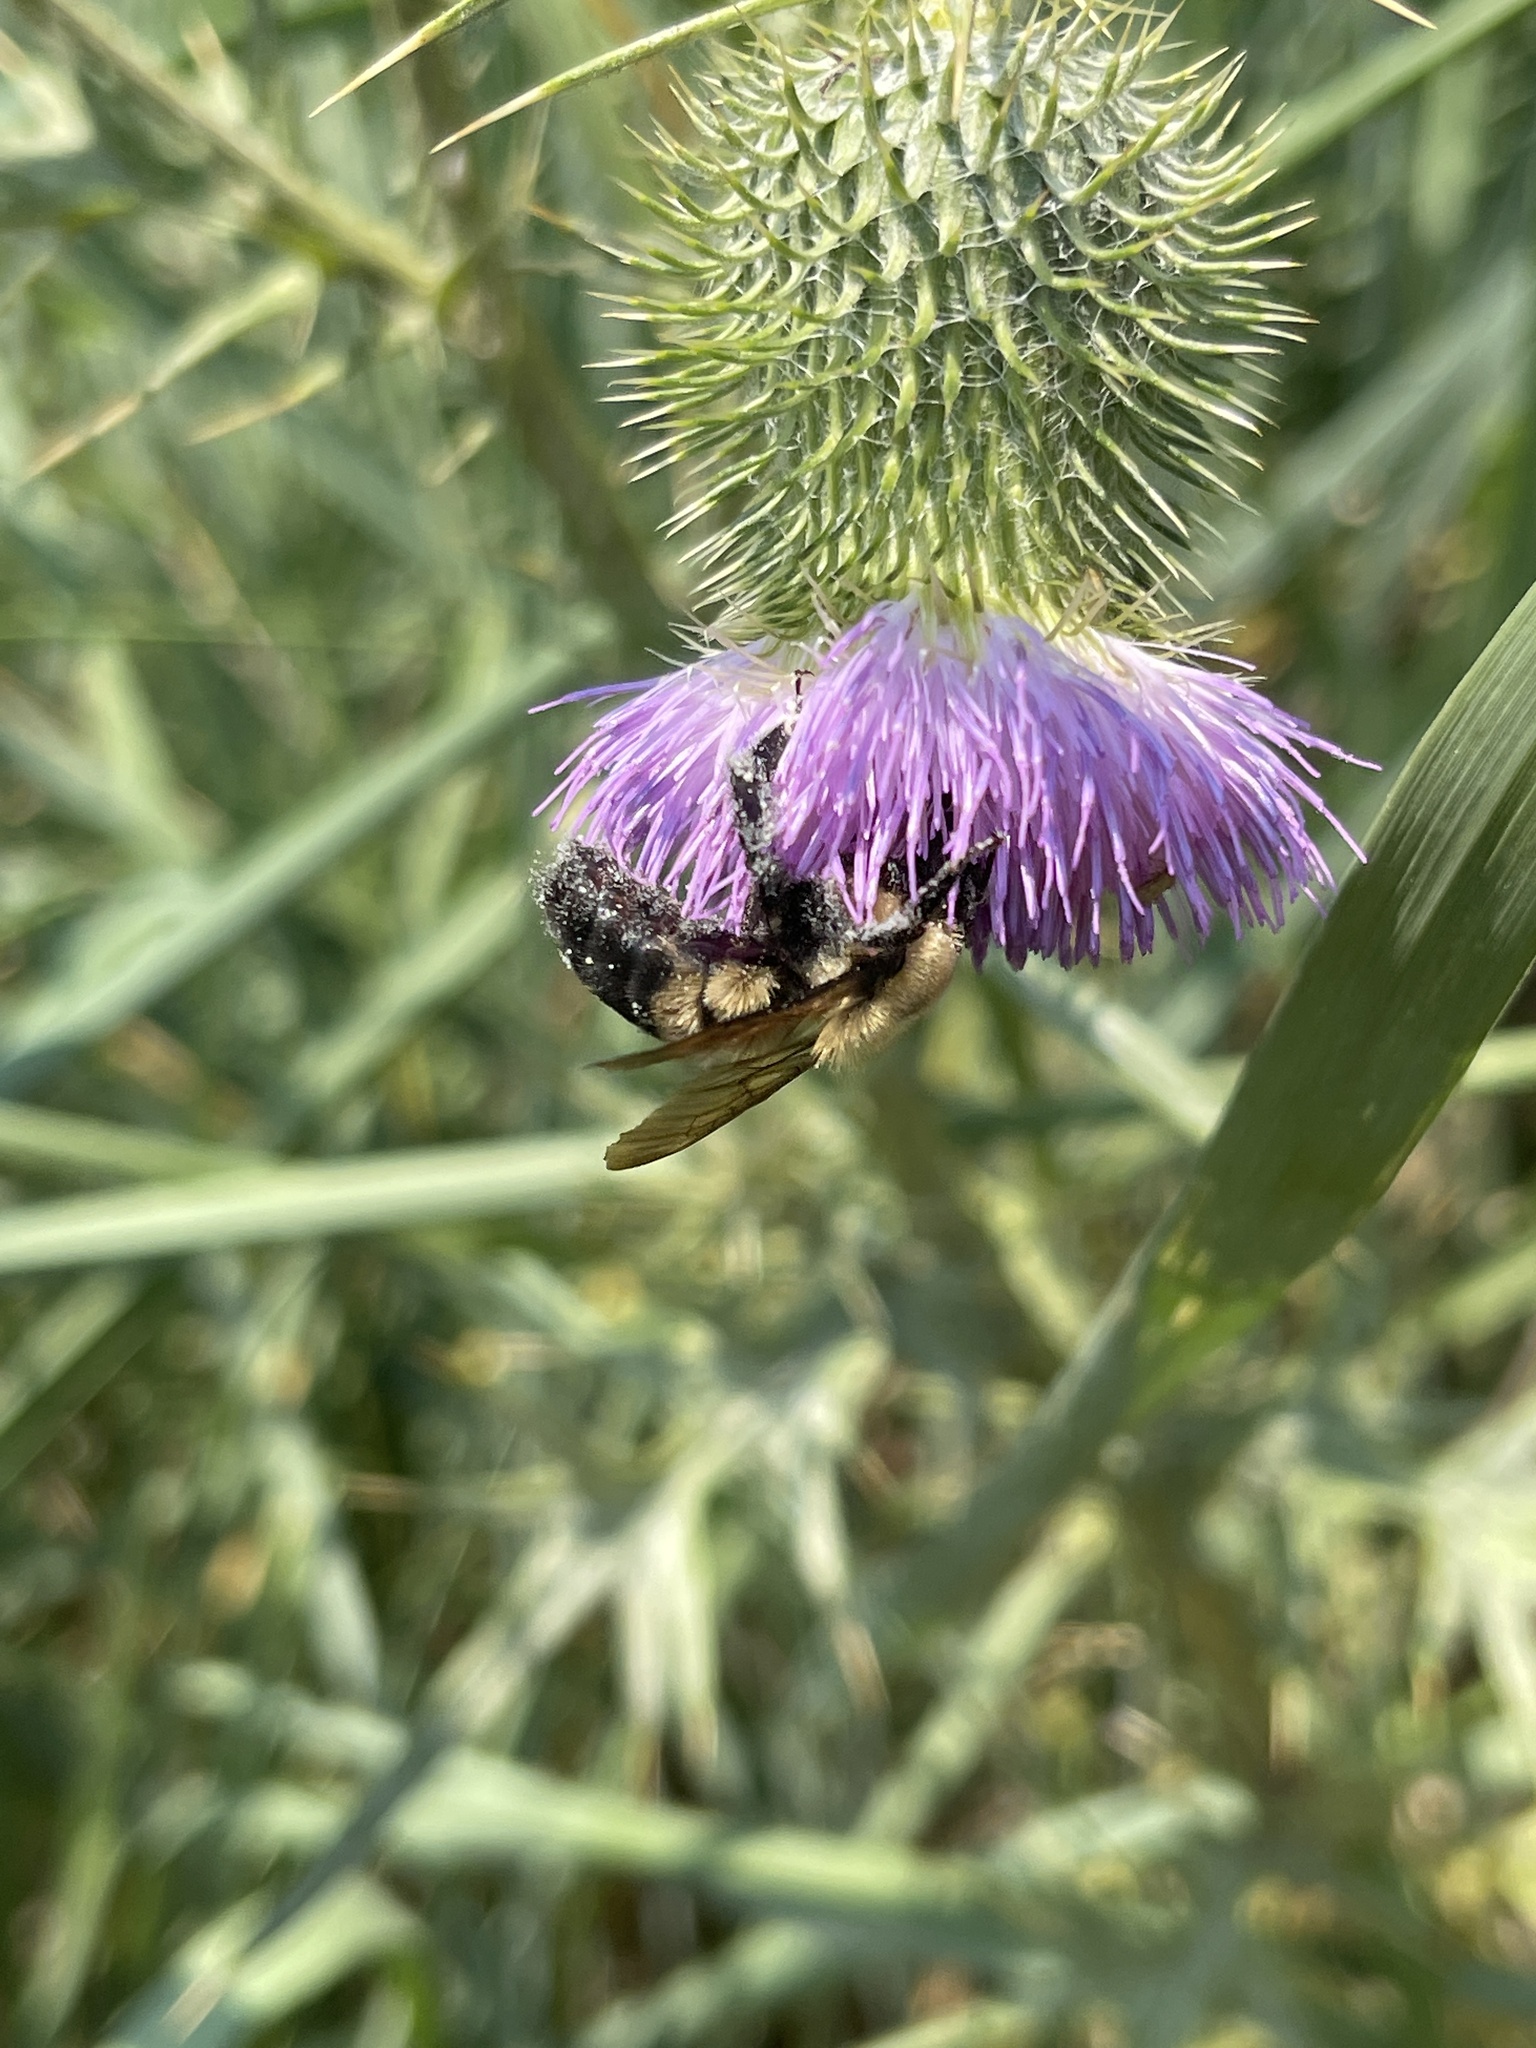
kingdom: Animalia
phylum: Arthropoda
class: Insecta
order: Hymenoptera
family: Apidae
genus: Bombus
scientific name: Bombus griseocollis
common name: Brown-belted bumble bee
